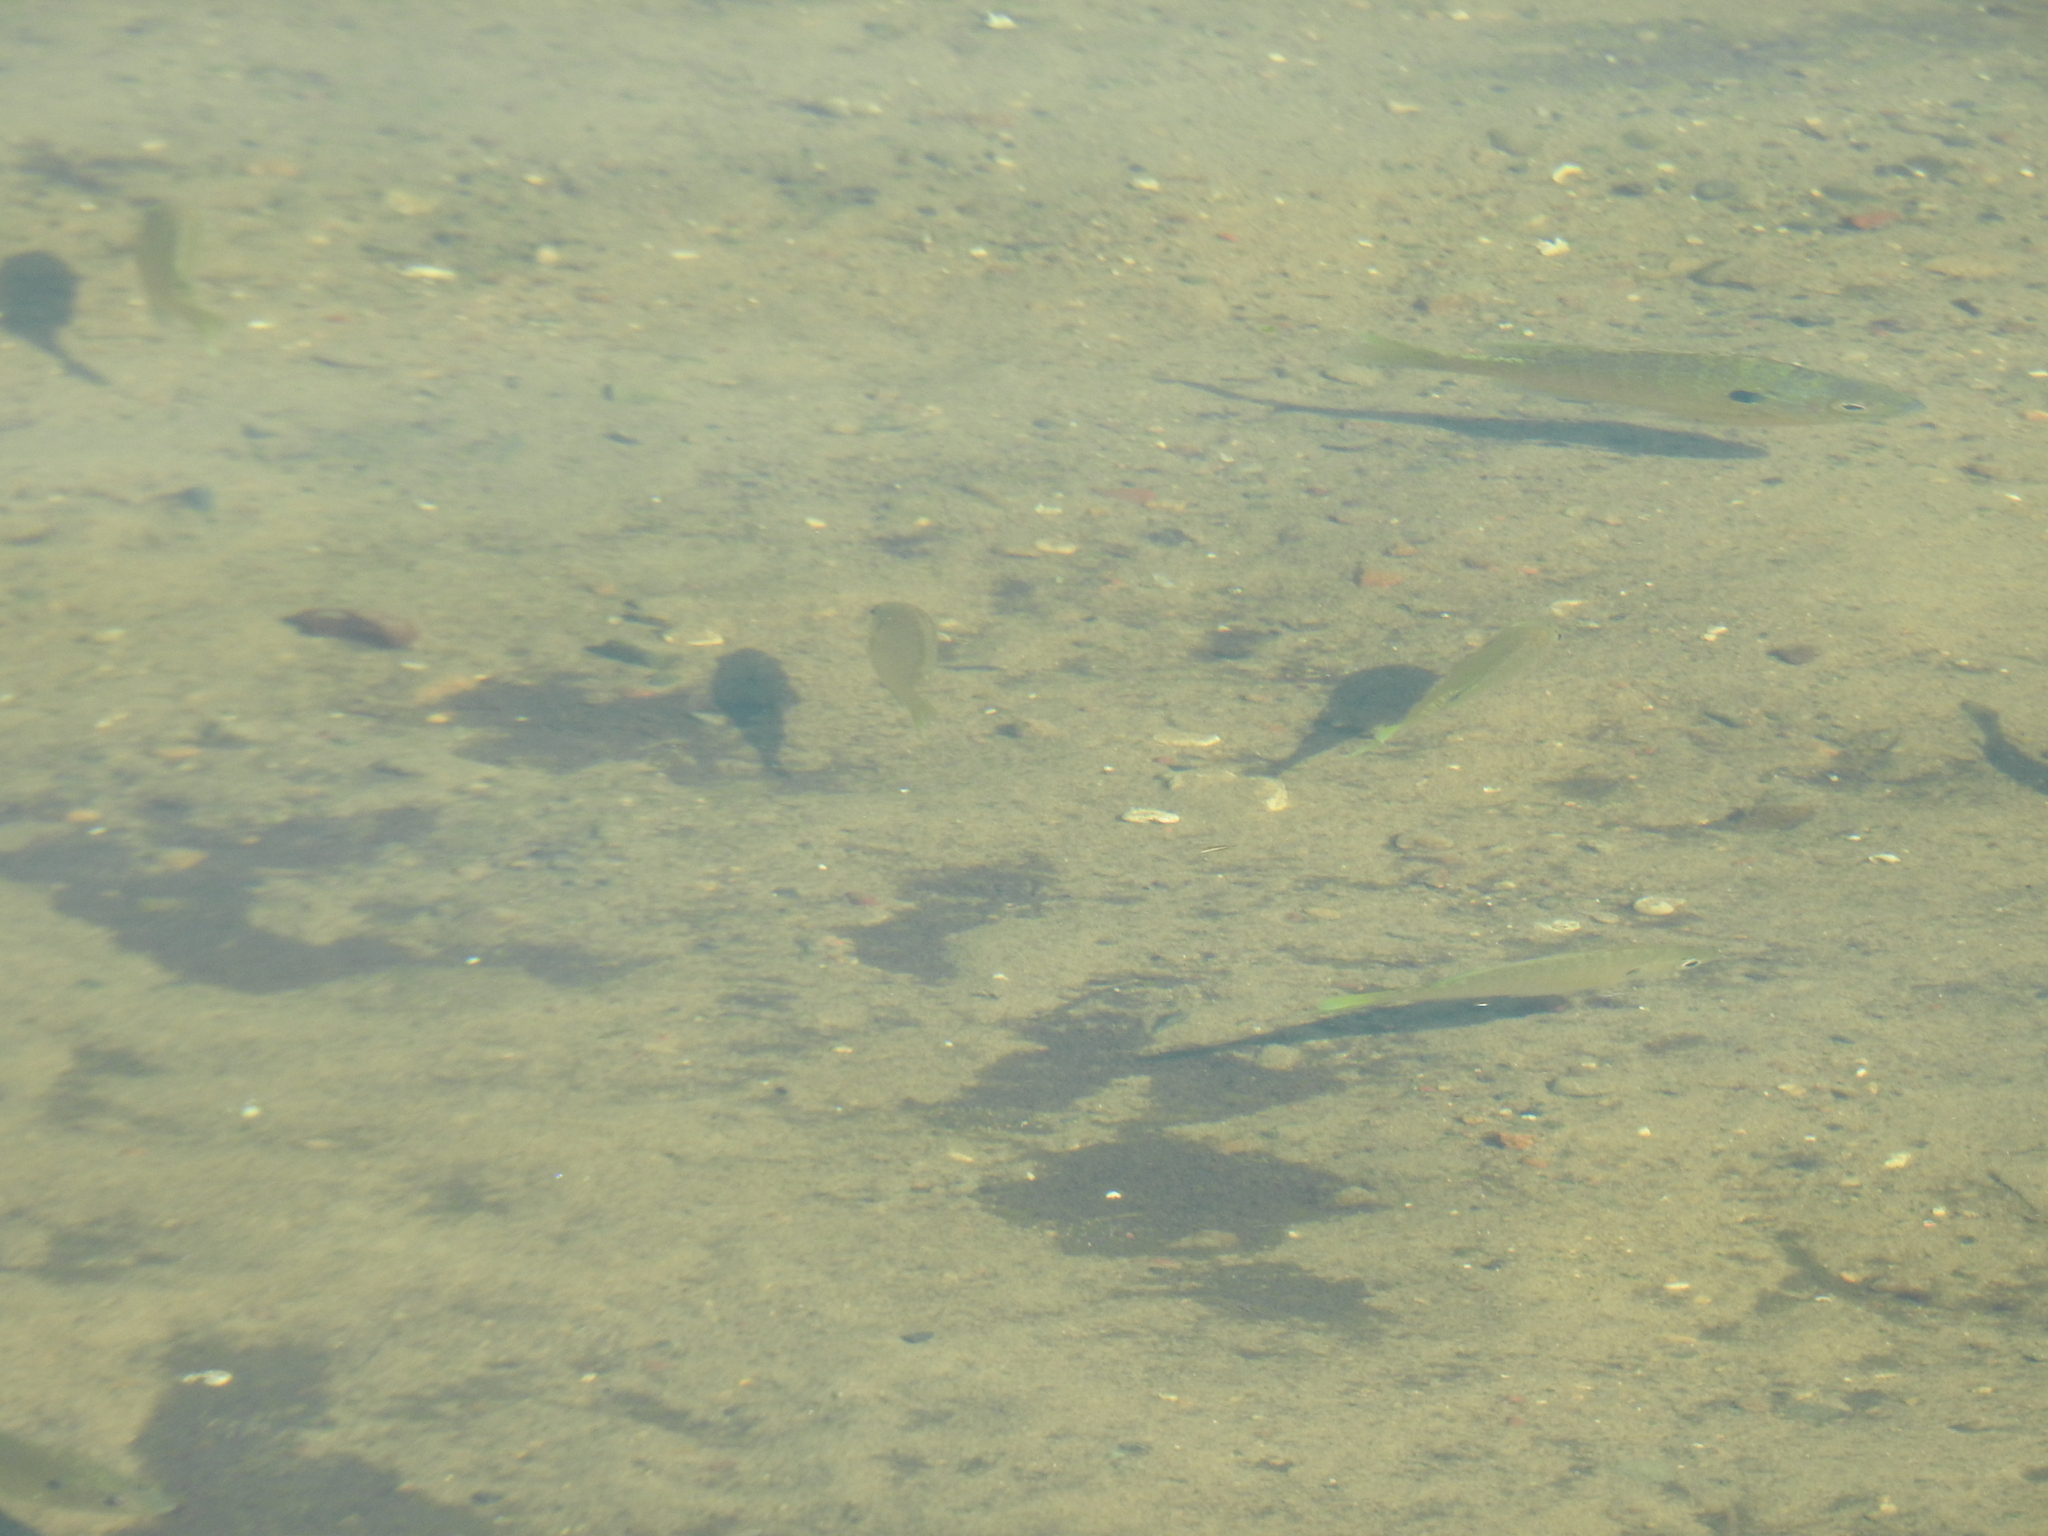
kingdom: Animalia
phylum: Chordata
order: Perciformes
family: Centrarchidae
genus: Lepomis
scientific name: Lepomis gibbosus
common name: Pumpkinseed
